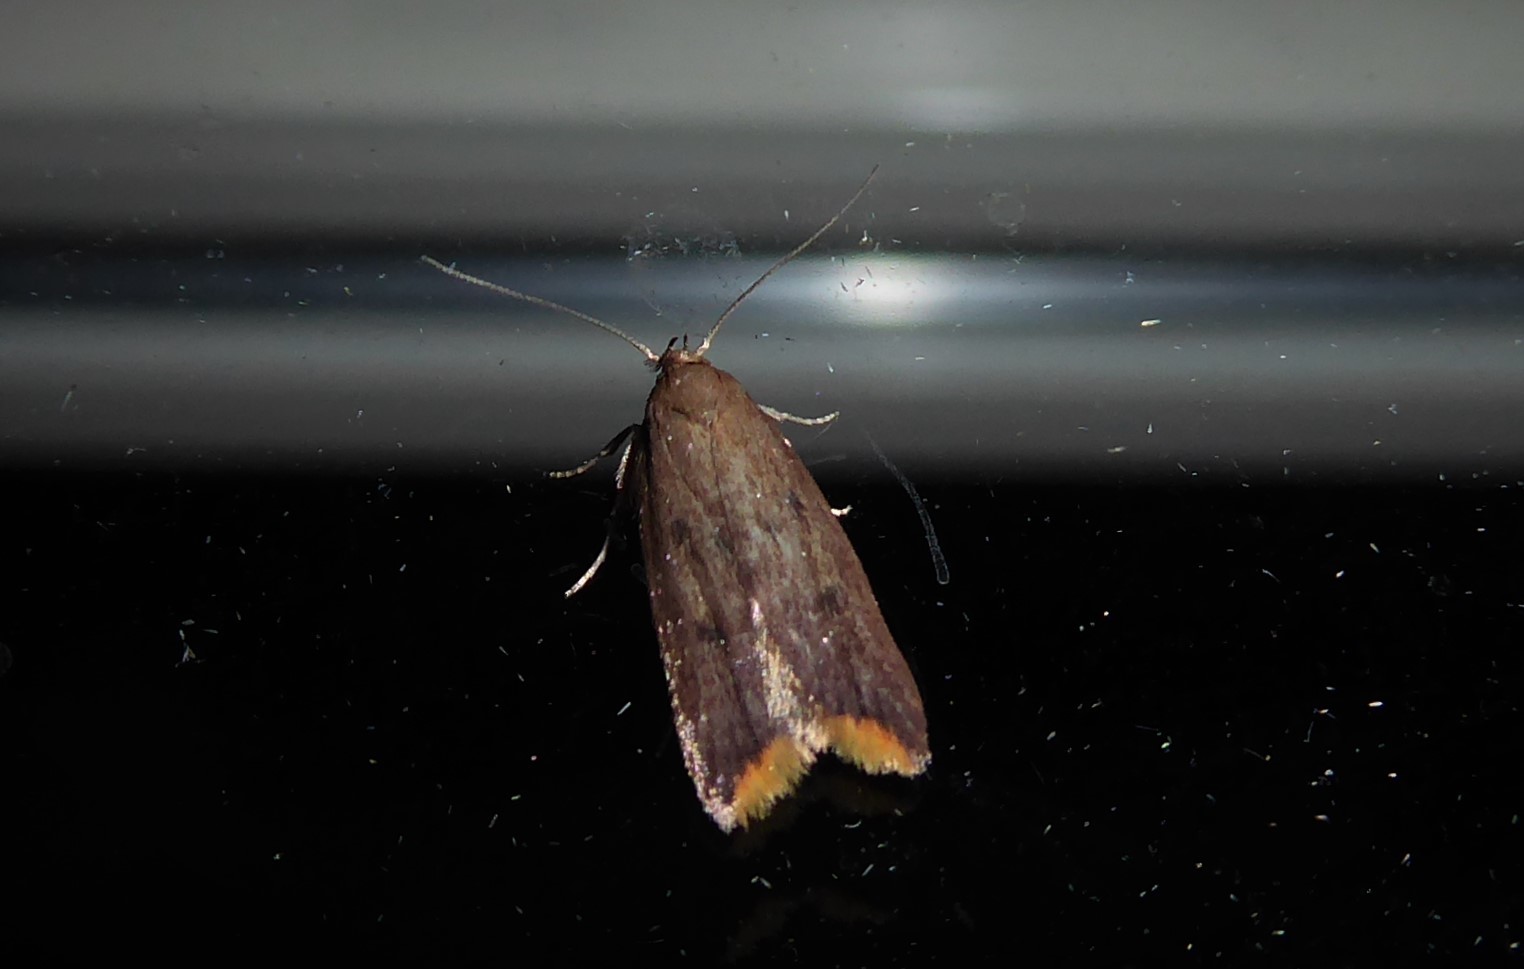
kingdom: Animalia
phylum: Arthropoda
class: Insecta
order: Lepidoptera
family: Oecophoridae
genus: Tachystola
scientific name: Tachystola acroxantha
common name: Ruddy streak
